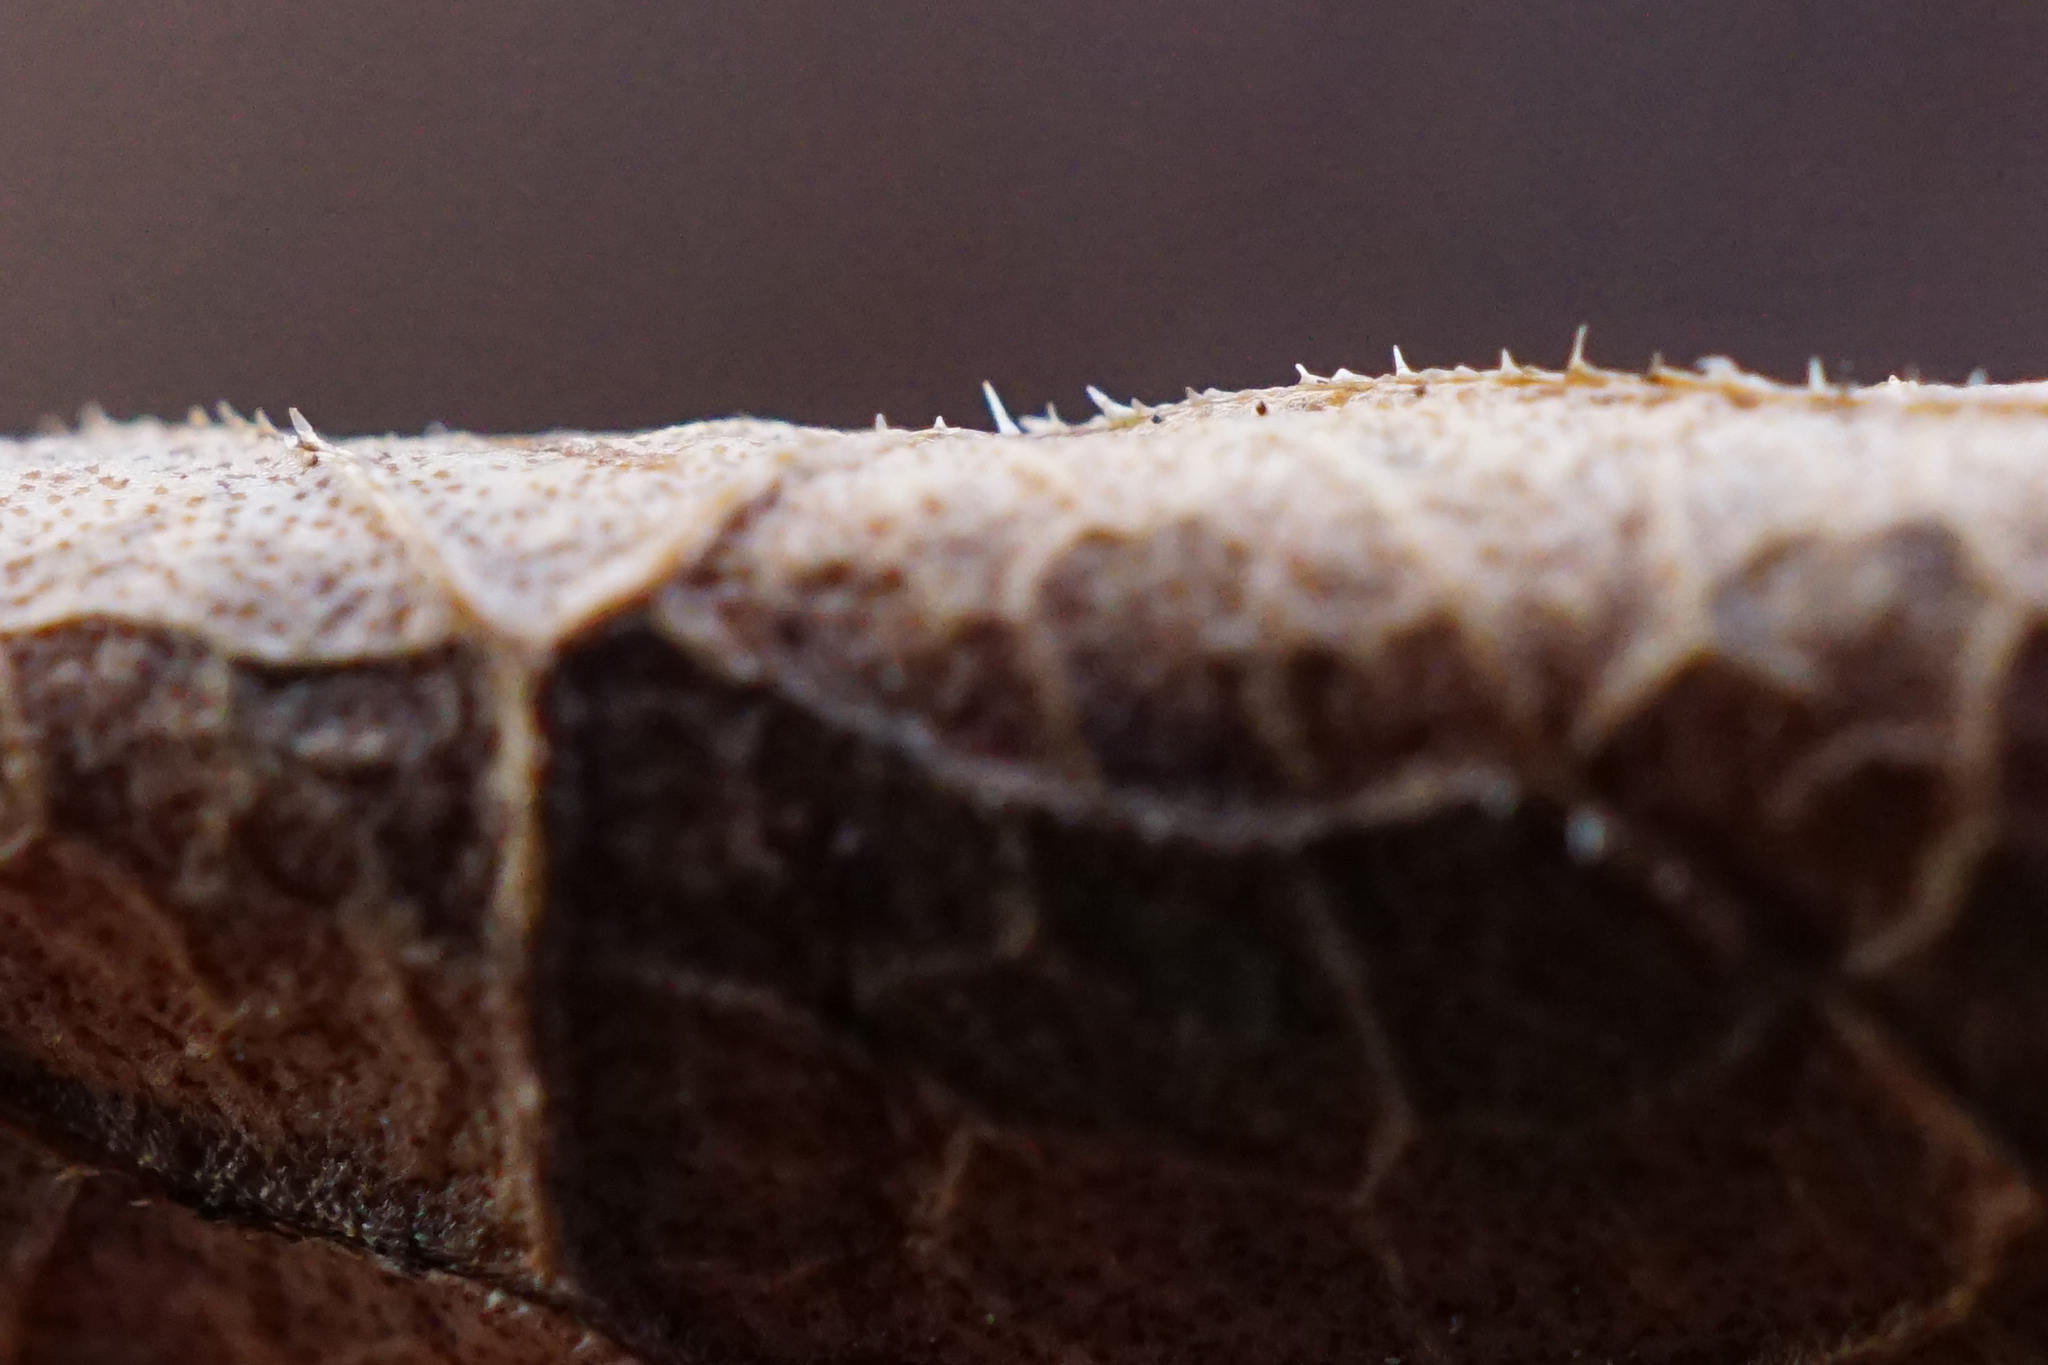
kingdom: Plantae
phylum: Tracheophyta
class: Magnoliopsida
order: Caryophyllales
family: Polygonaceae
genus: Reynoutria
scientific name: Reynoutria bohemica
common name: Bohemian knotweed
